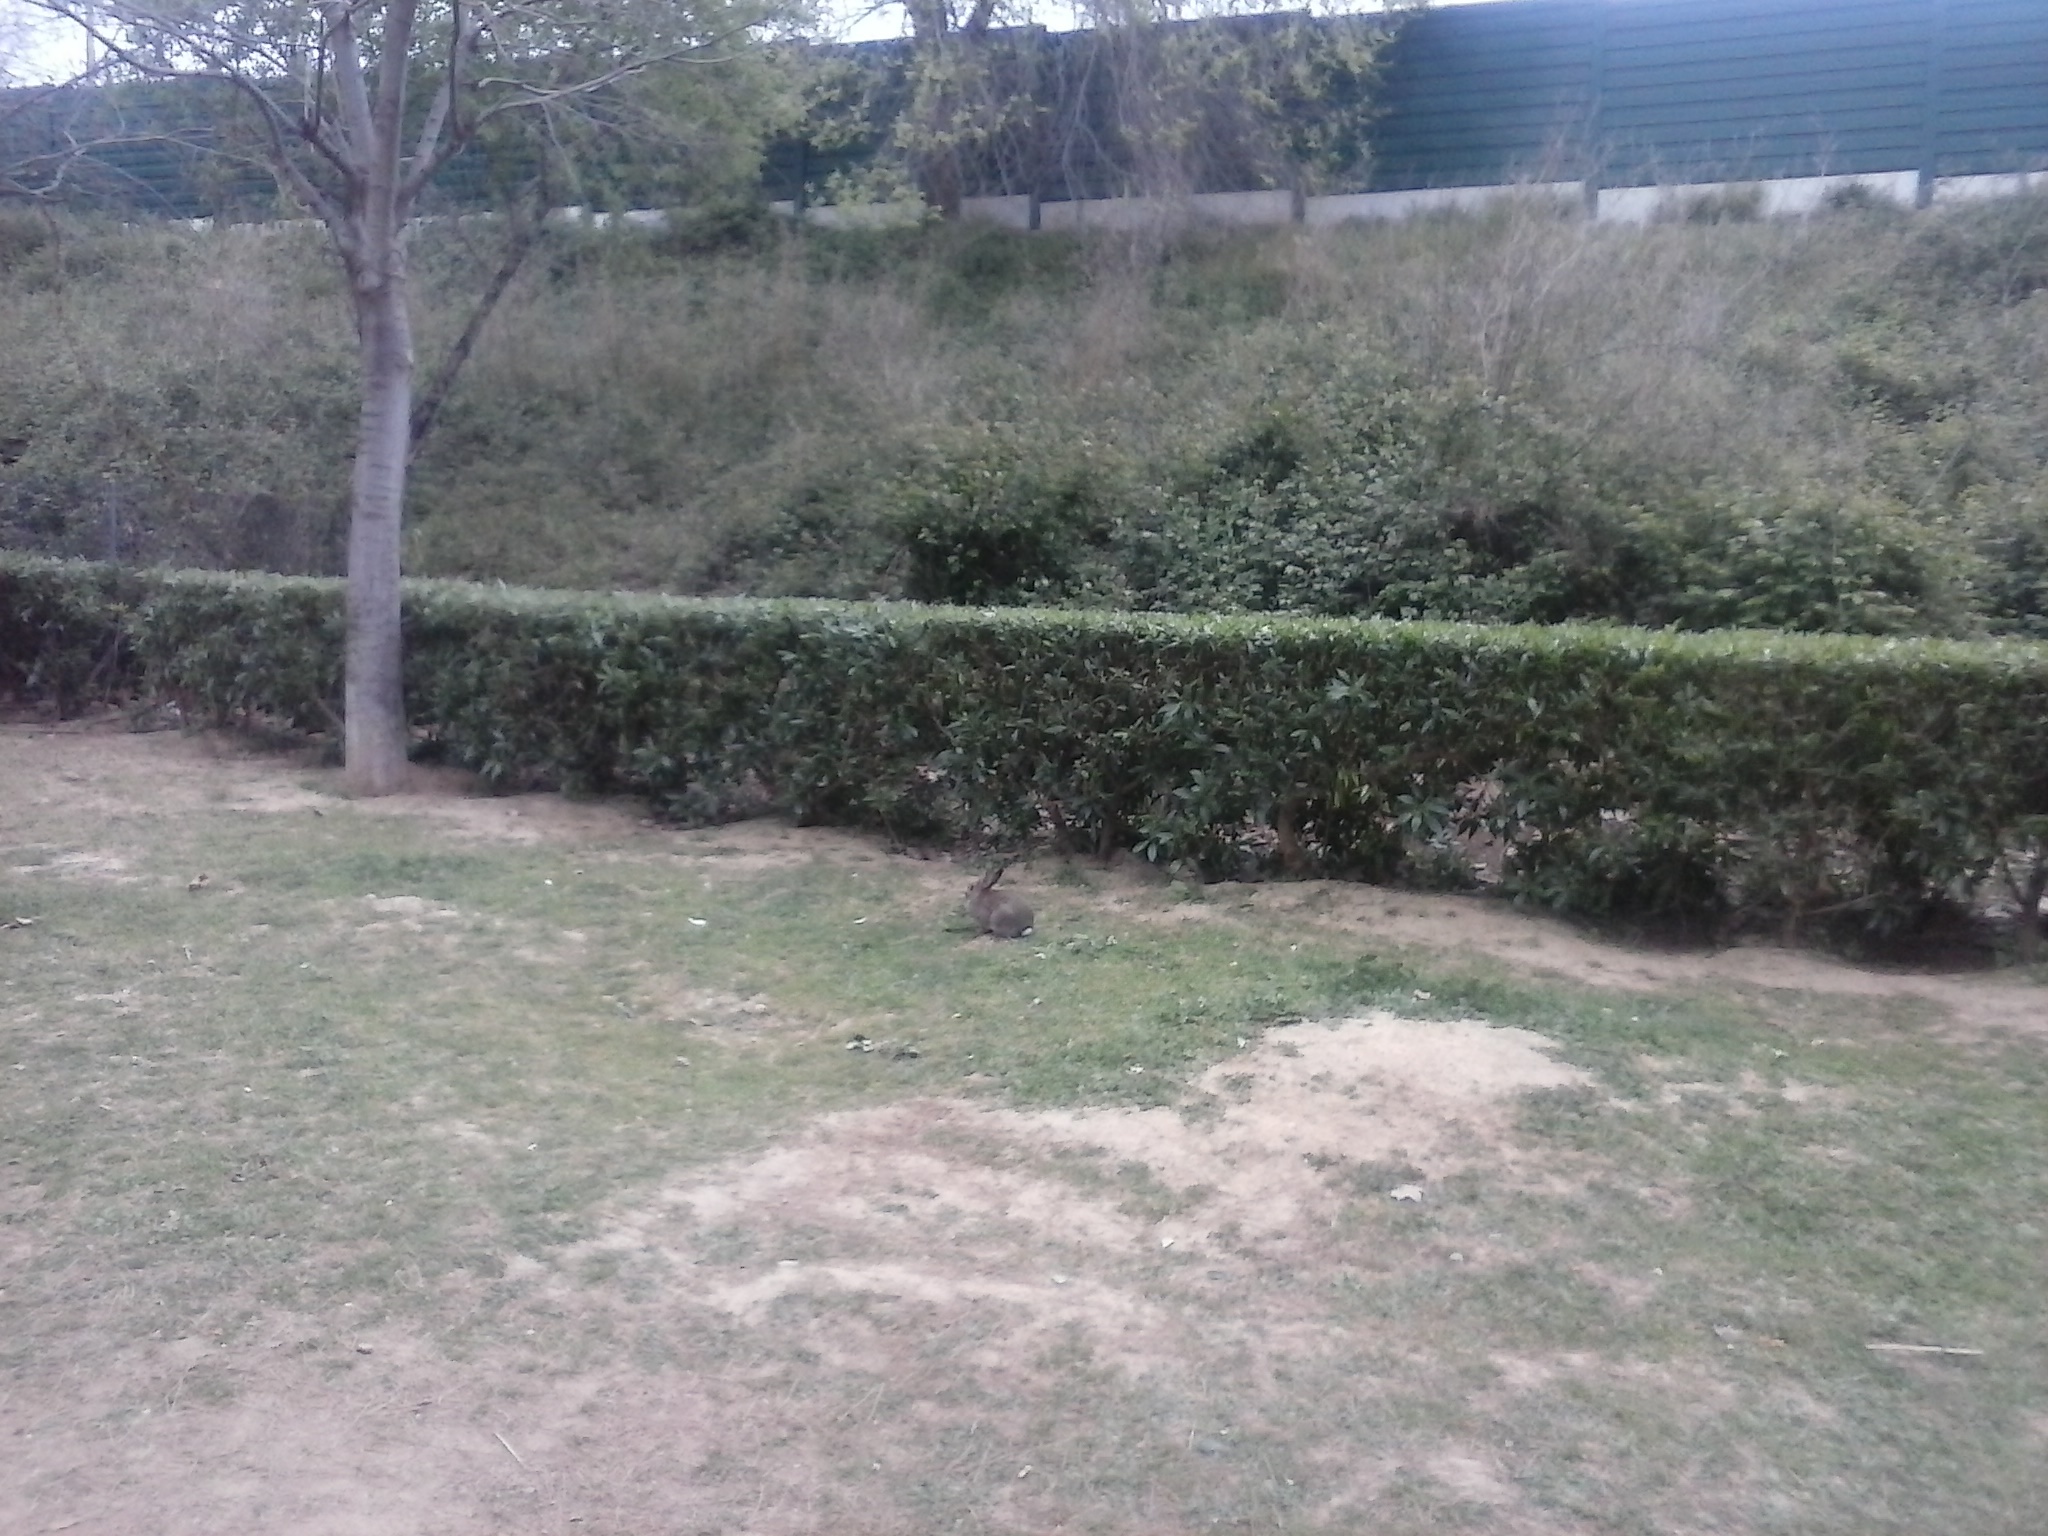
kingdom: Animalia
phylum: Chordata
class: Mammalia
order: Lagomorpha
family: Leporidae
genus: Oryctolagus
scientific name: Oryctolagus cuniculus
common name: European rabbit
